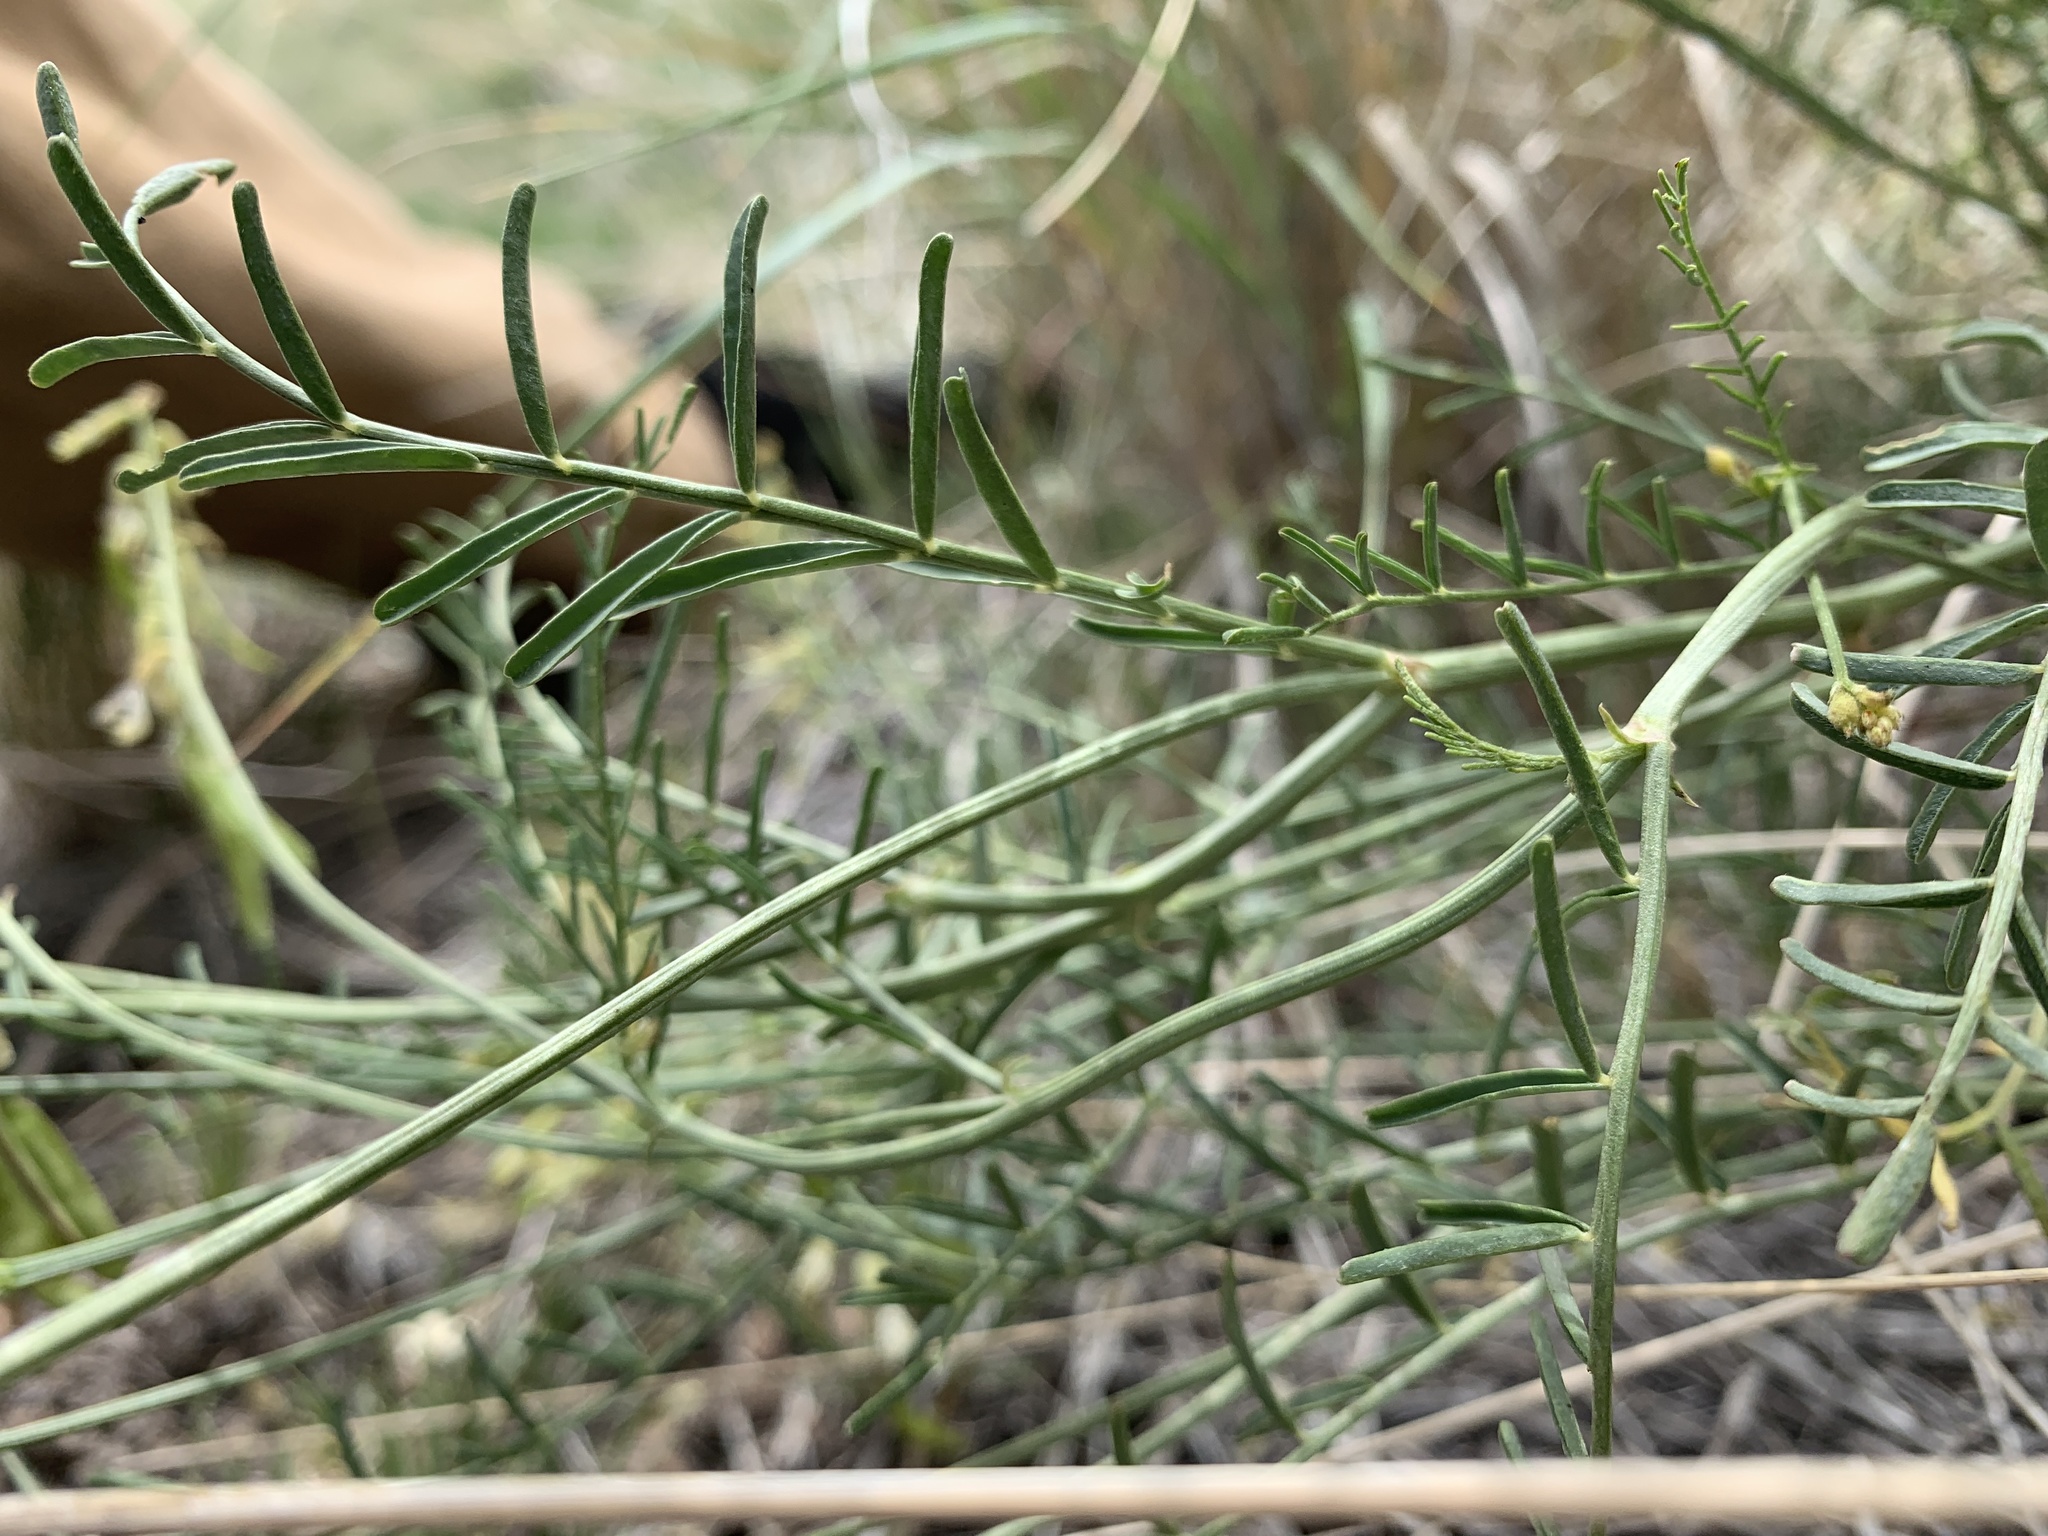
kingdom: Plantae
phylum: Tracheophyta
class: Magnoliopsida
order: Fabales
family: Fabaceae
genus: Astragalus
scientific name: Astragalus filipes
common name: Basalt milk-vetch
